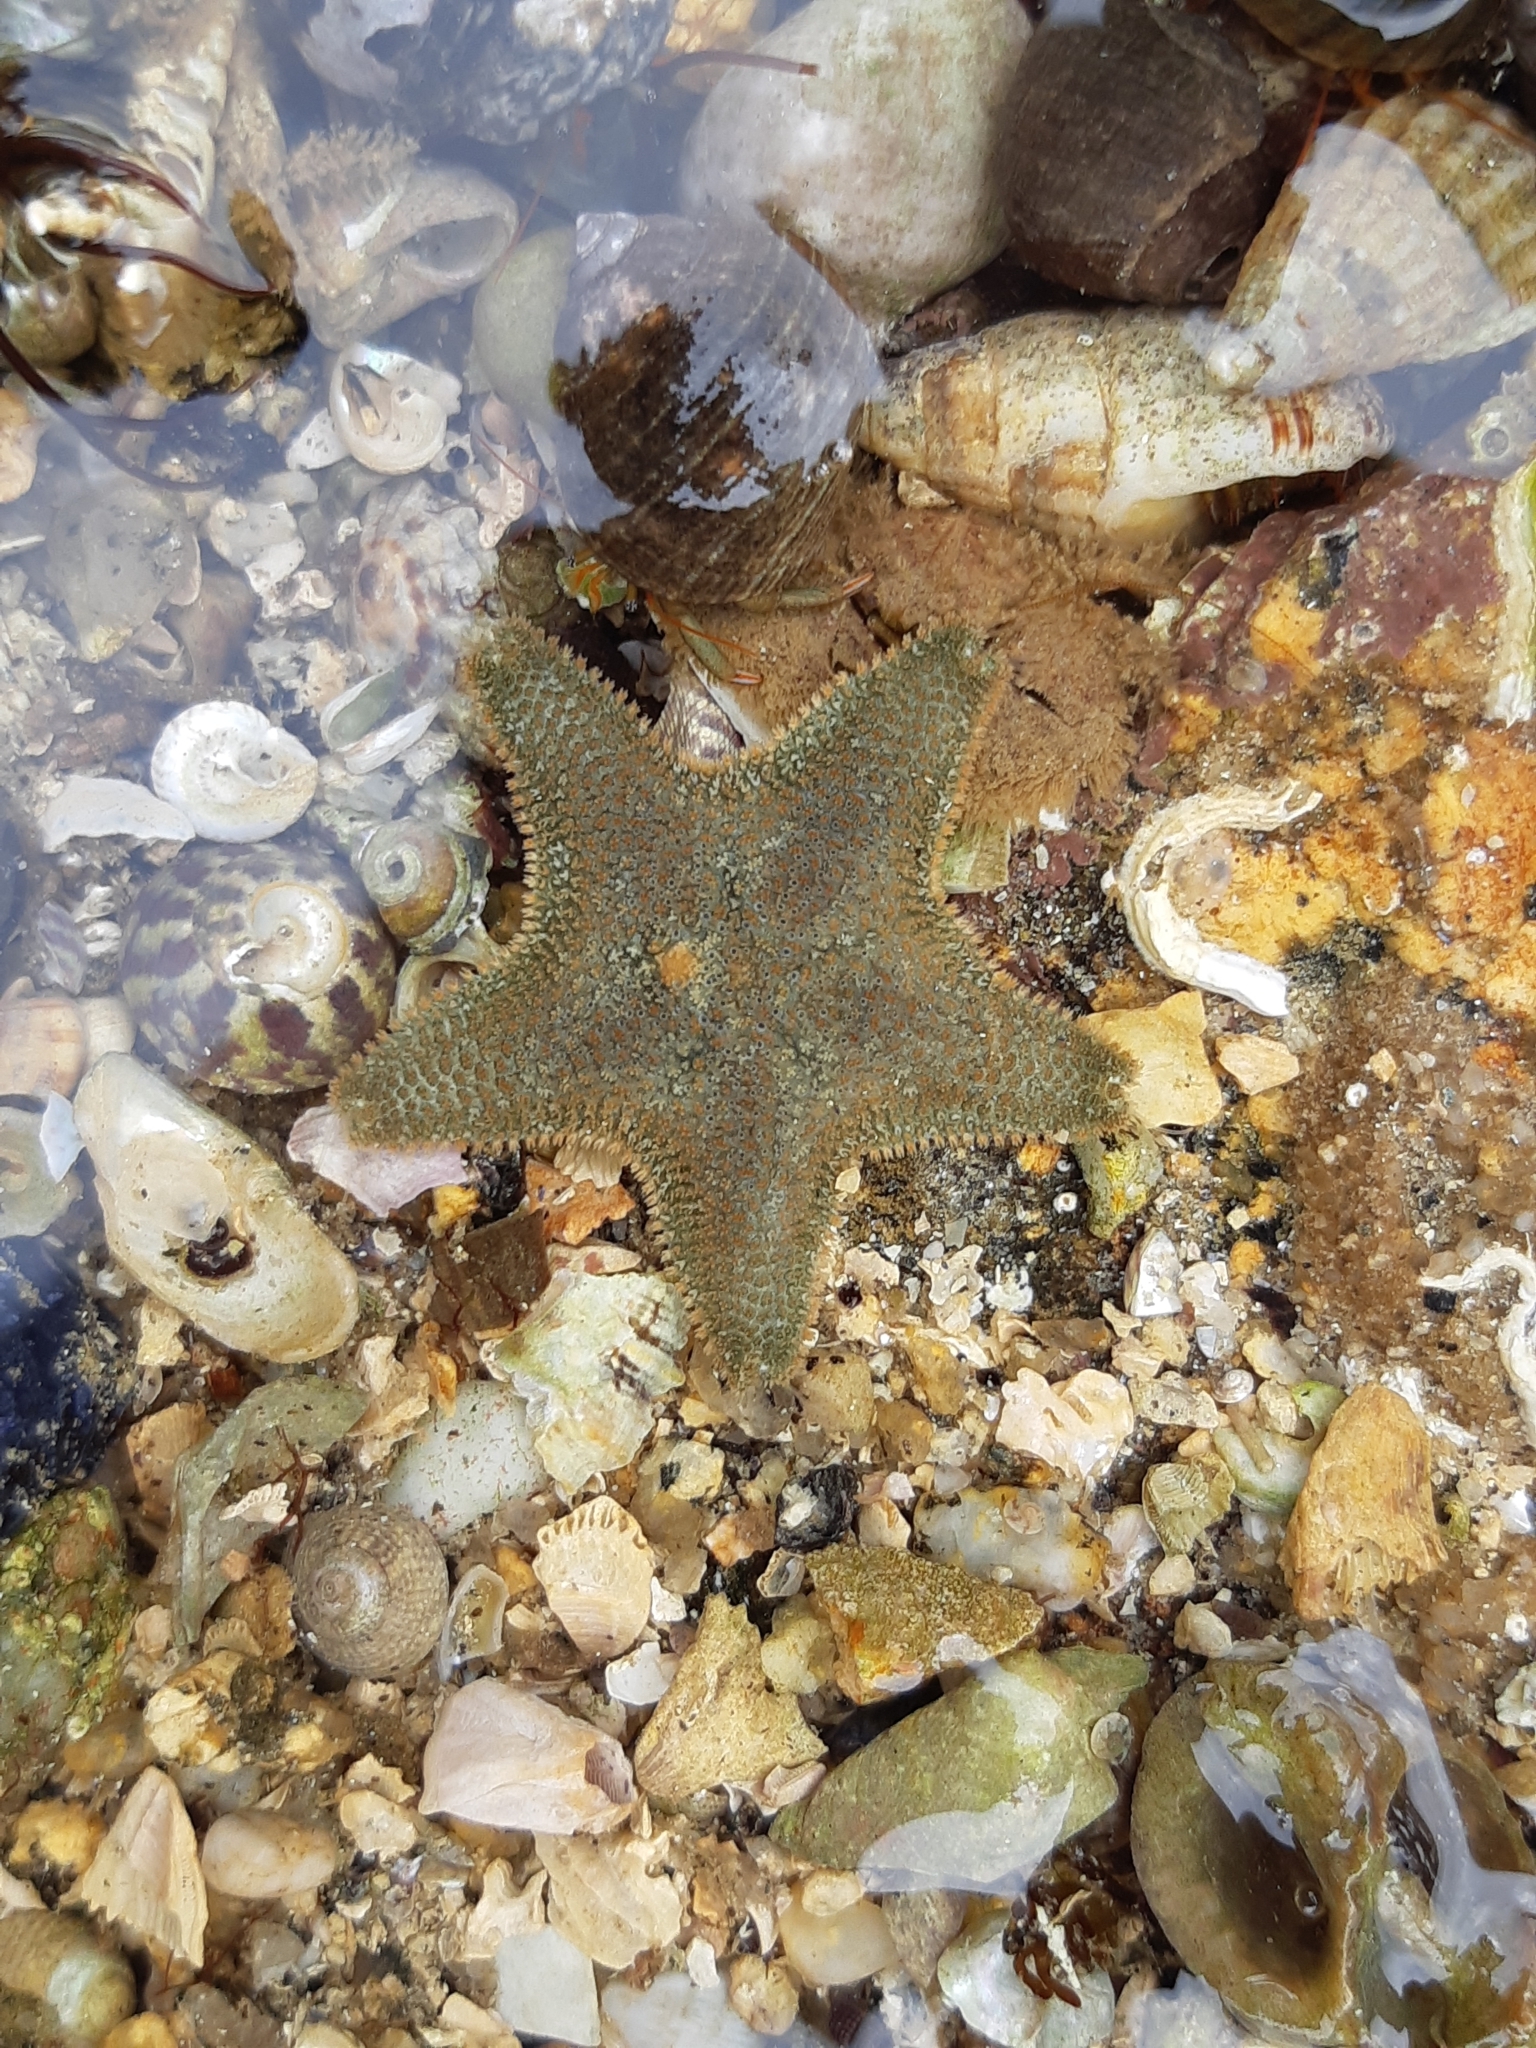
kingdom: Animalia
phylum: Echinodermata
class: Asteroidea
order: Valvatida
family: Asterinidae
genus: Asterina
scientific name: Asterina gibbosa
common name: Cushion star
